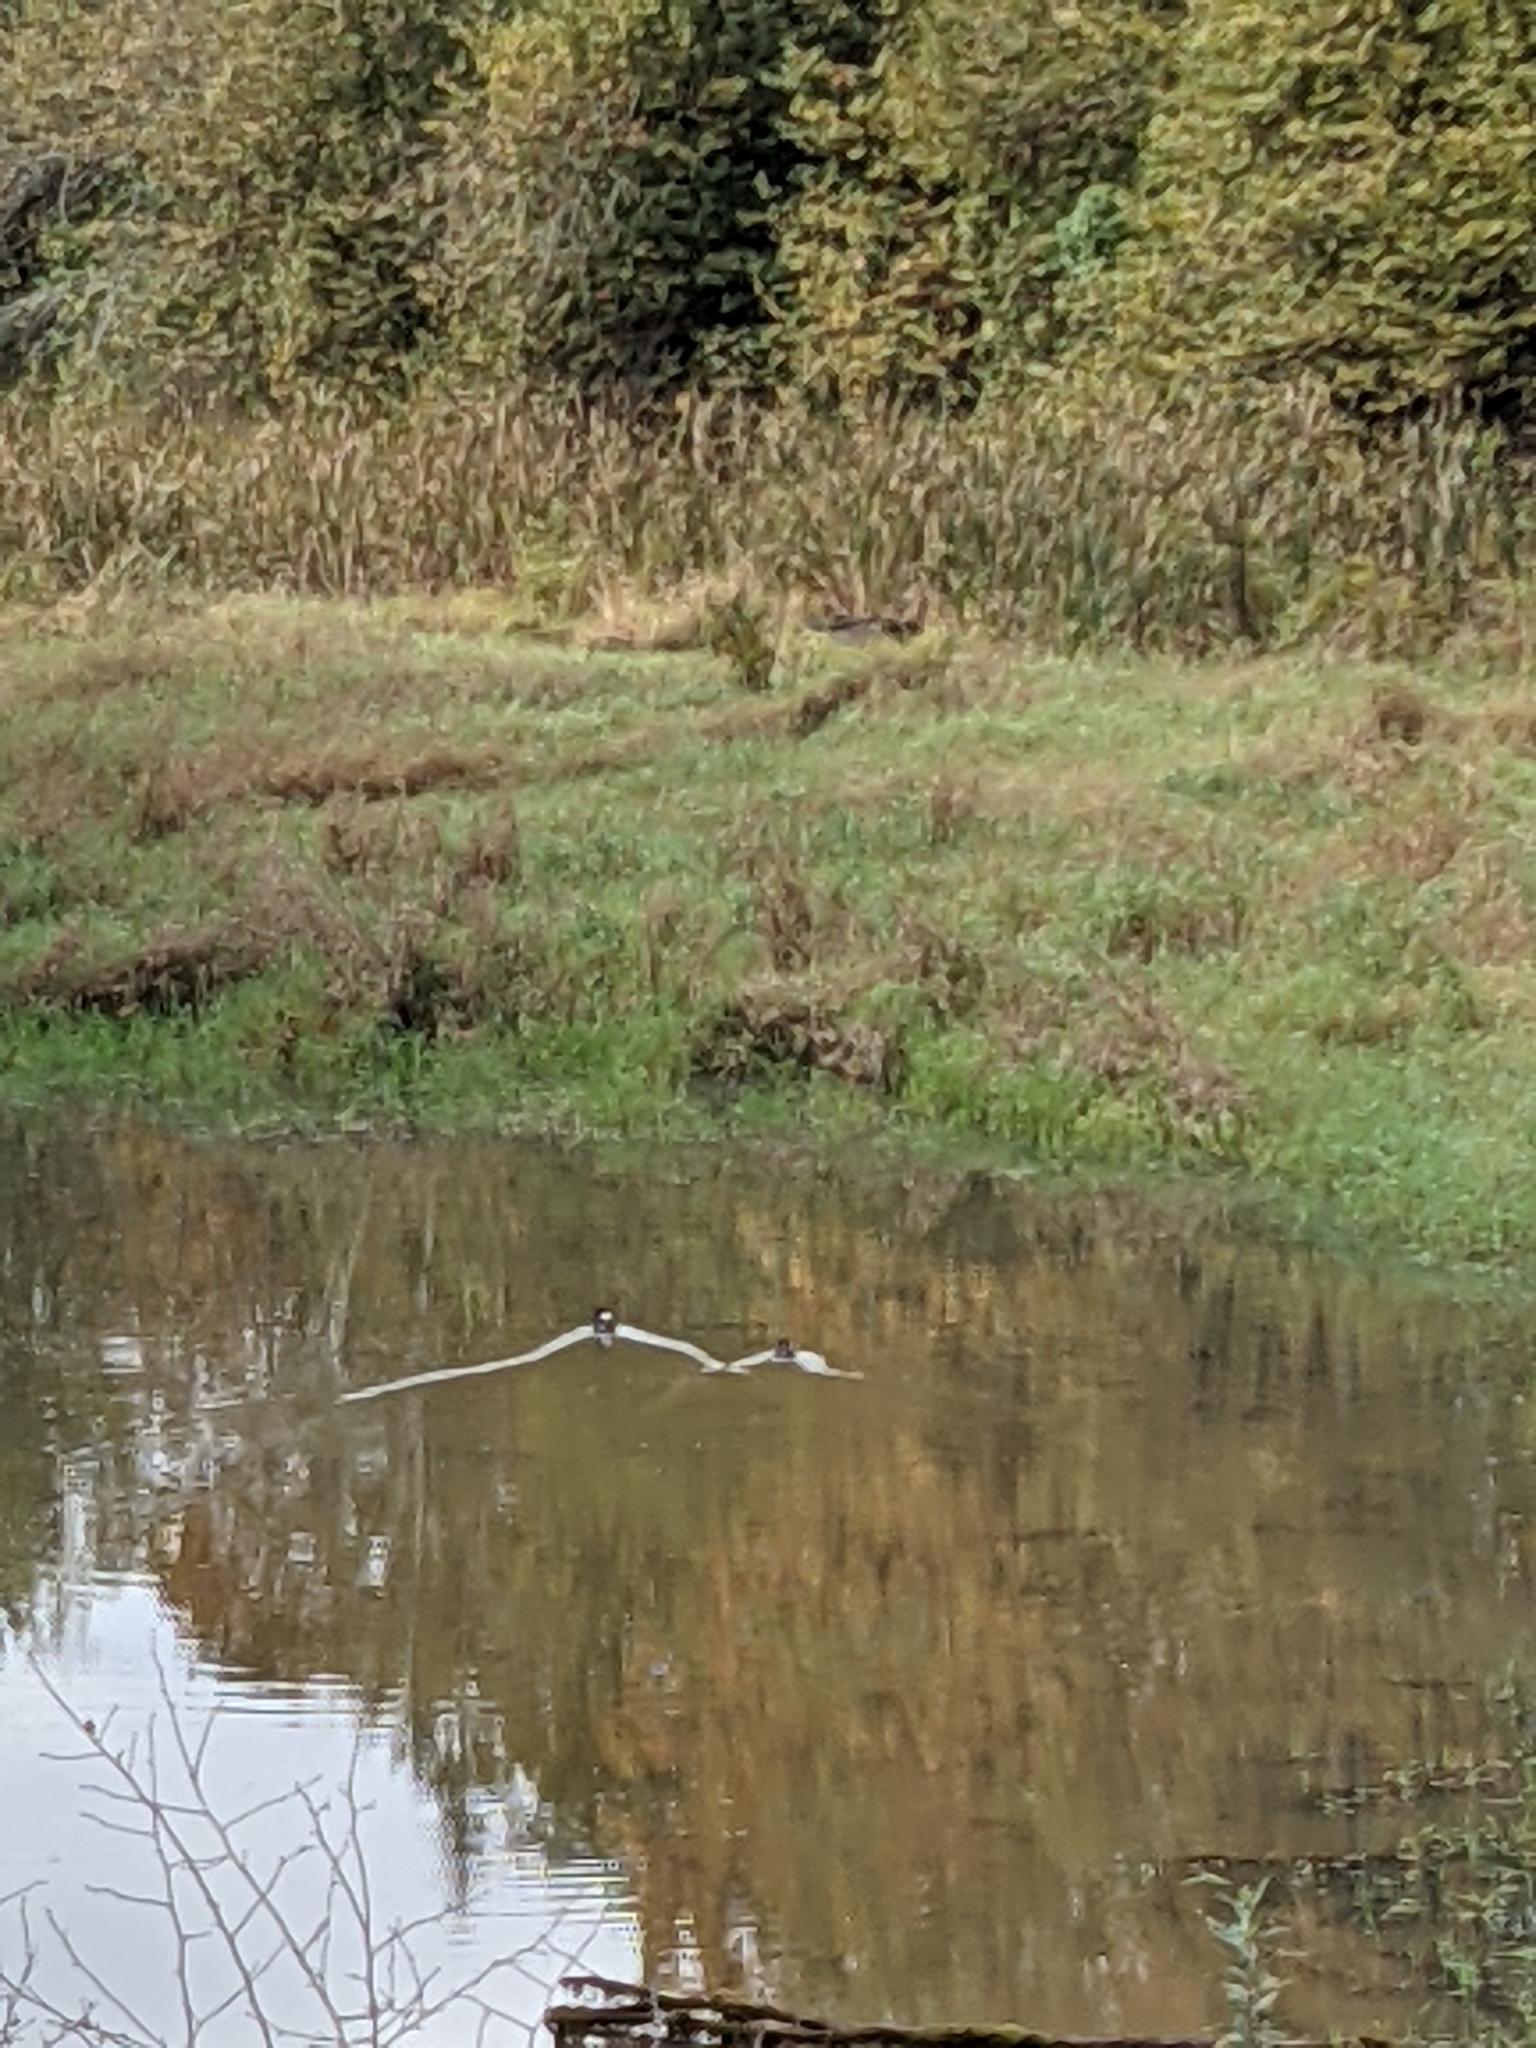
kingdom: Animalia
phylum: Chordata
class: Aves
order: Anseriformes
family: Anatidae
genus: Bucephala
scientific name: Bucephala albeola
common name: Bufflehead
